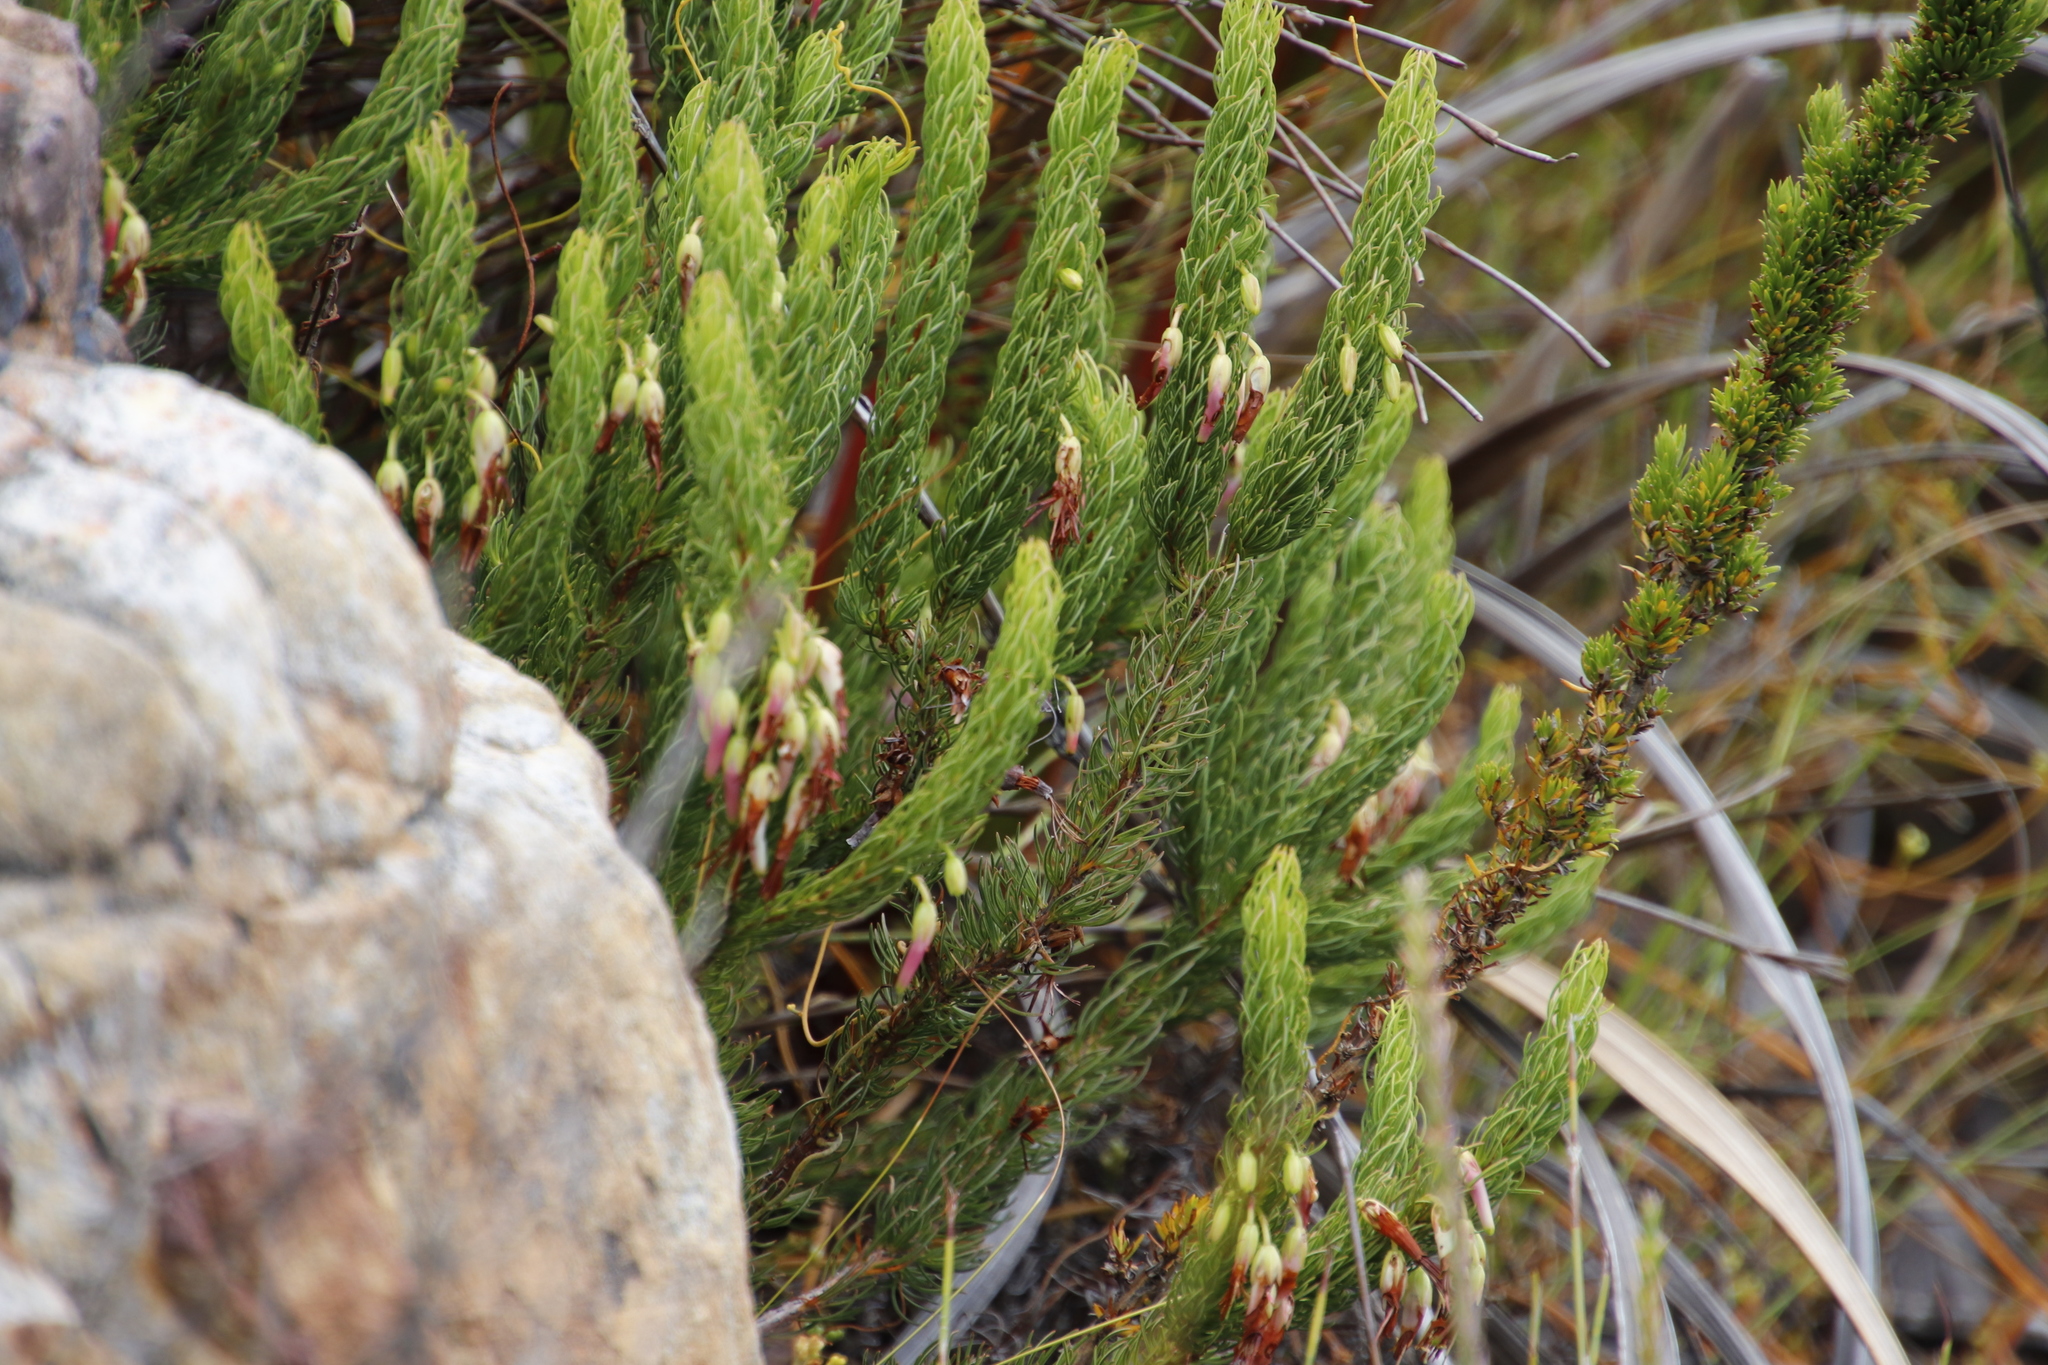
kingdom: Plantae
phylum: Tracheophyta
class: Magnoliopsida
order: Ericales
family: Ericaceae
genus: Erica
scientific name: Erica plukenetii
